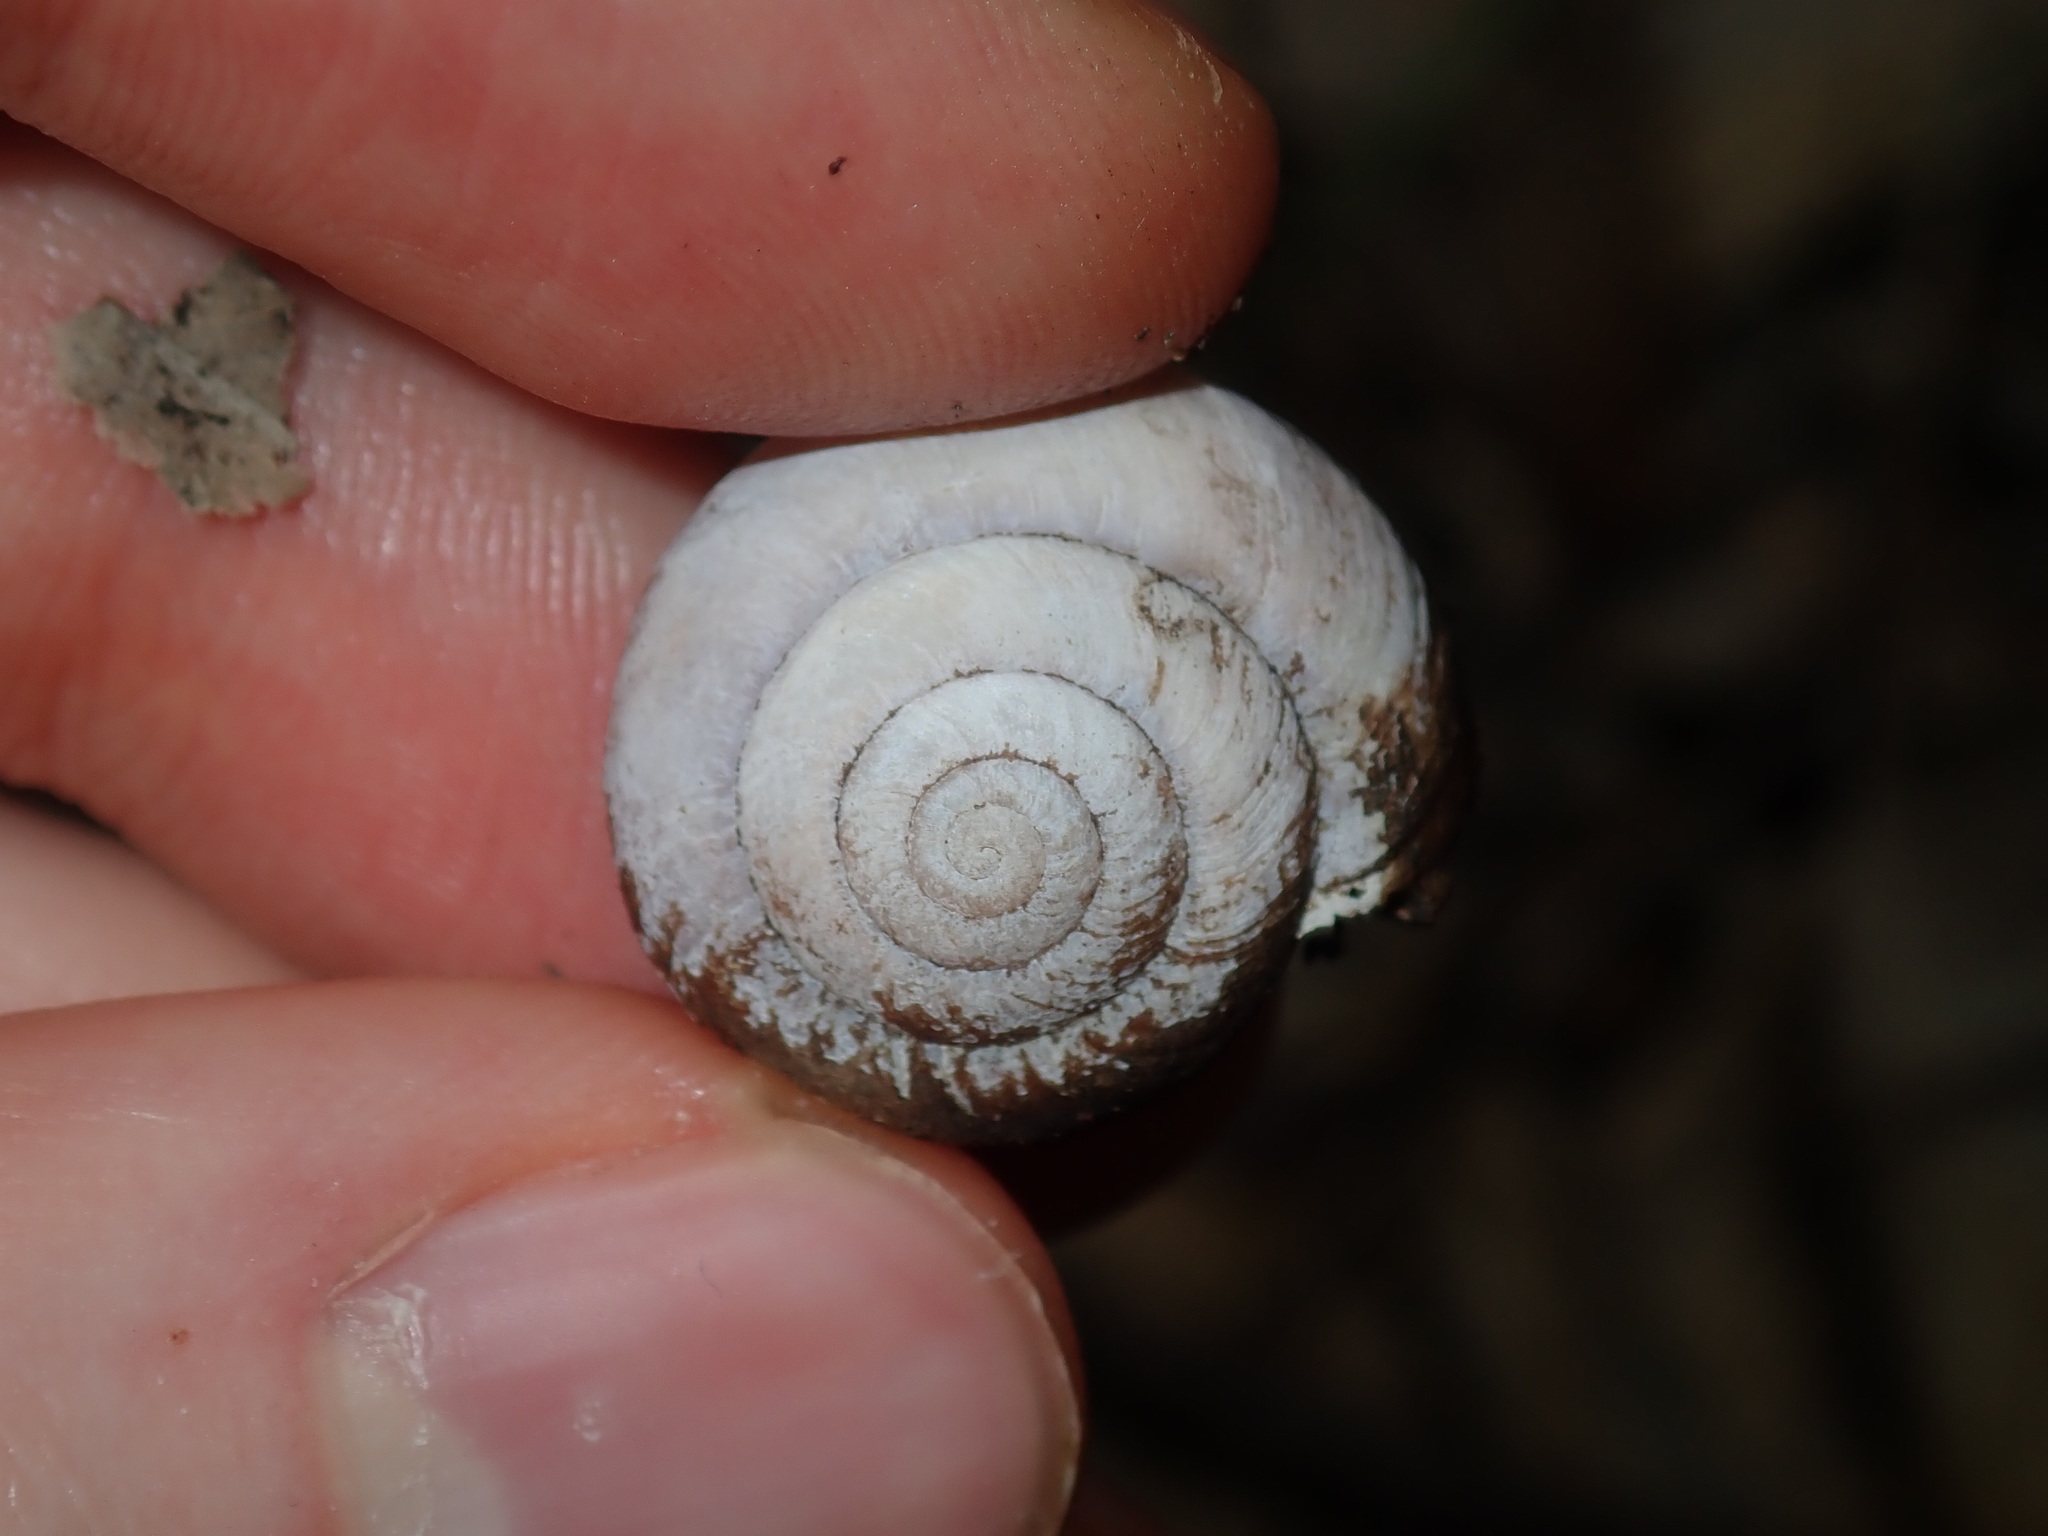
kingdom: Animalia
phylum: Mollusca
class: Gastropoda
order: Stylommatophora
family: Camaenidae
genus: Sauroconcha
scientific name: Sauroconcha sheai
